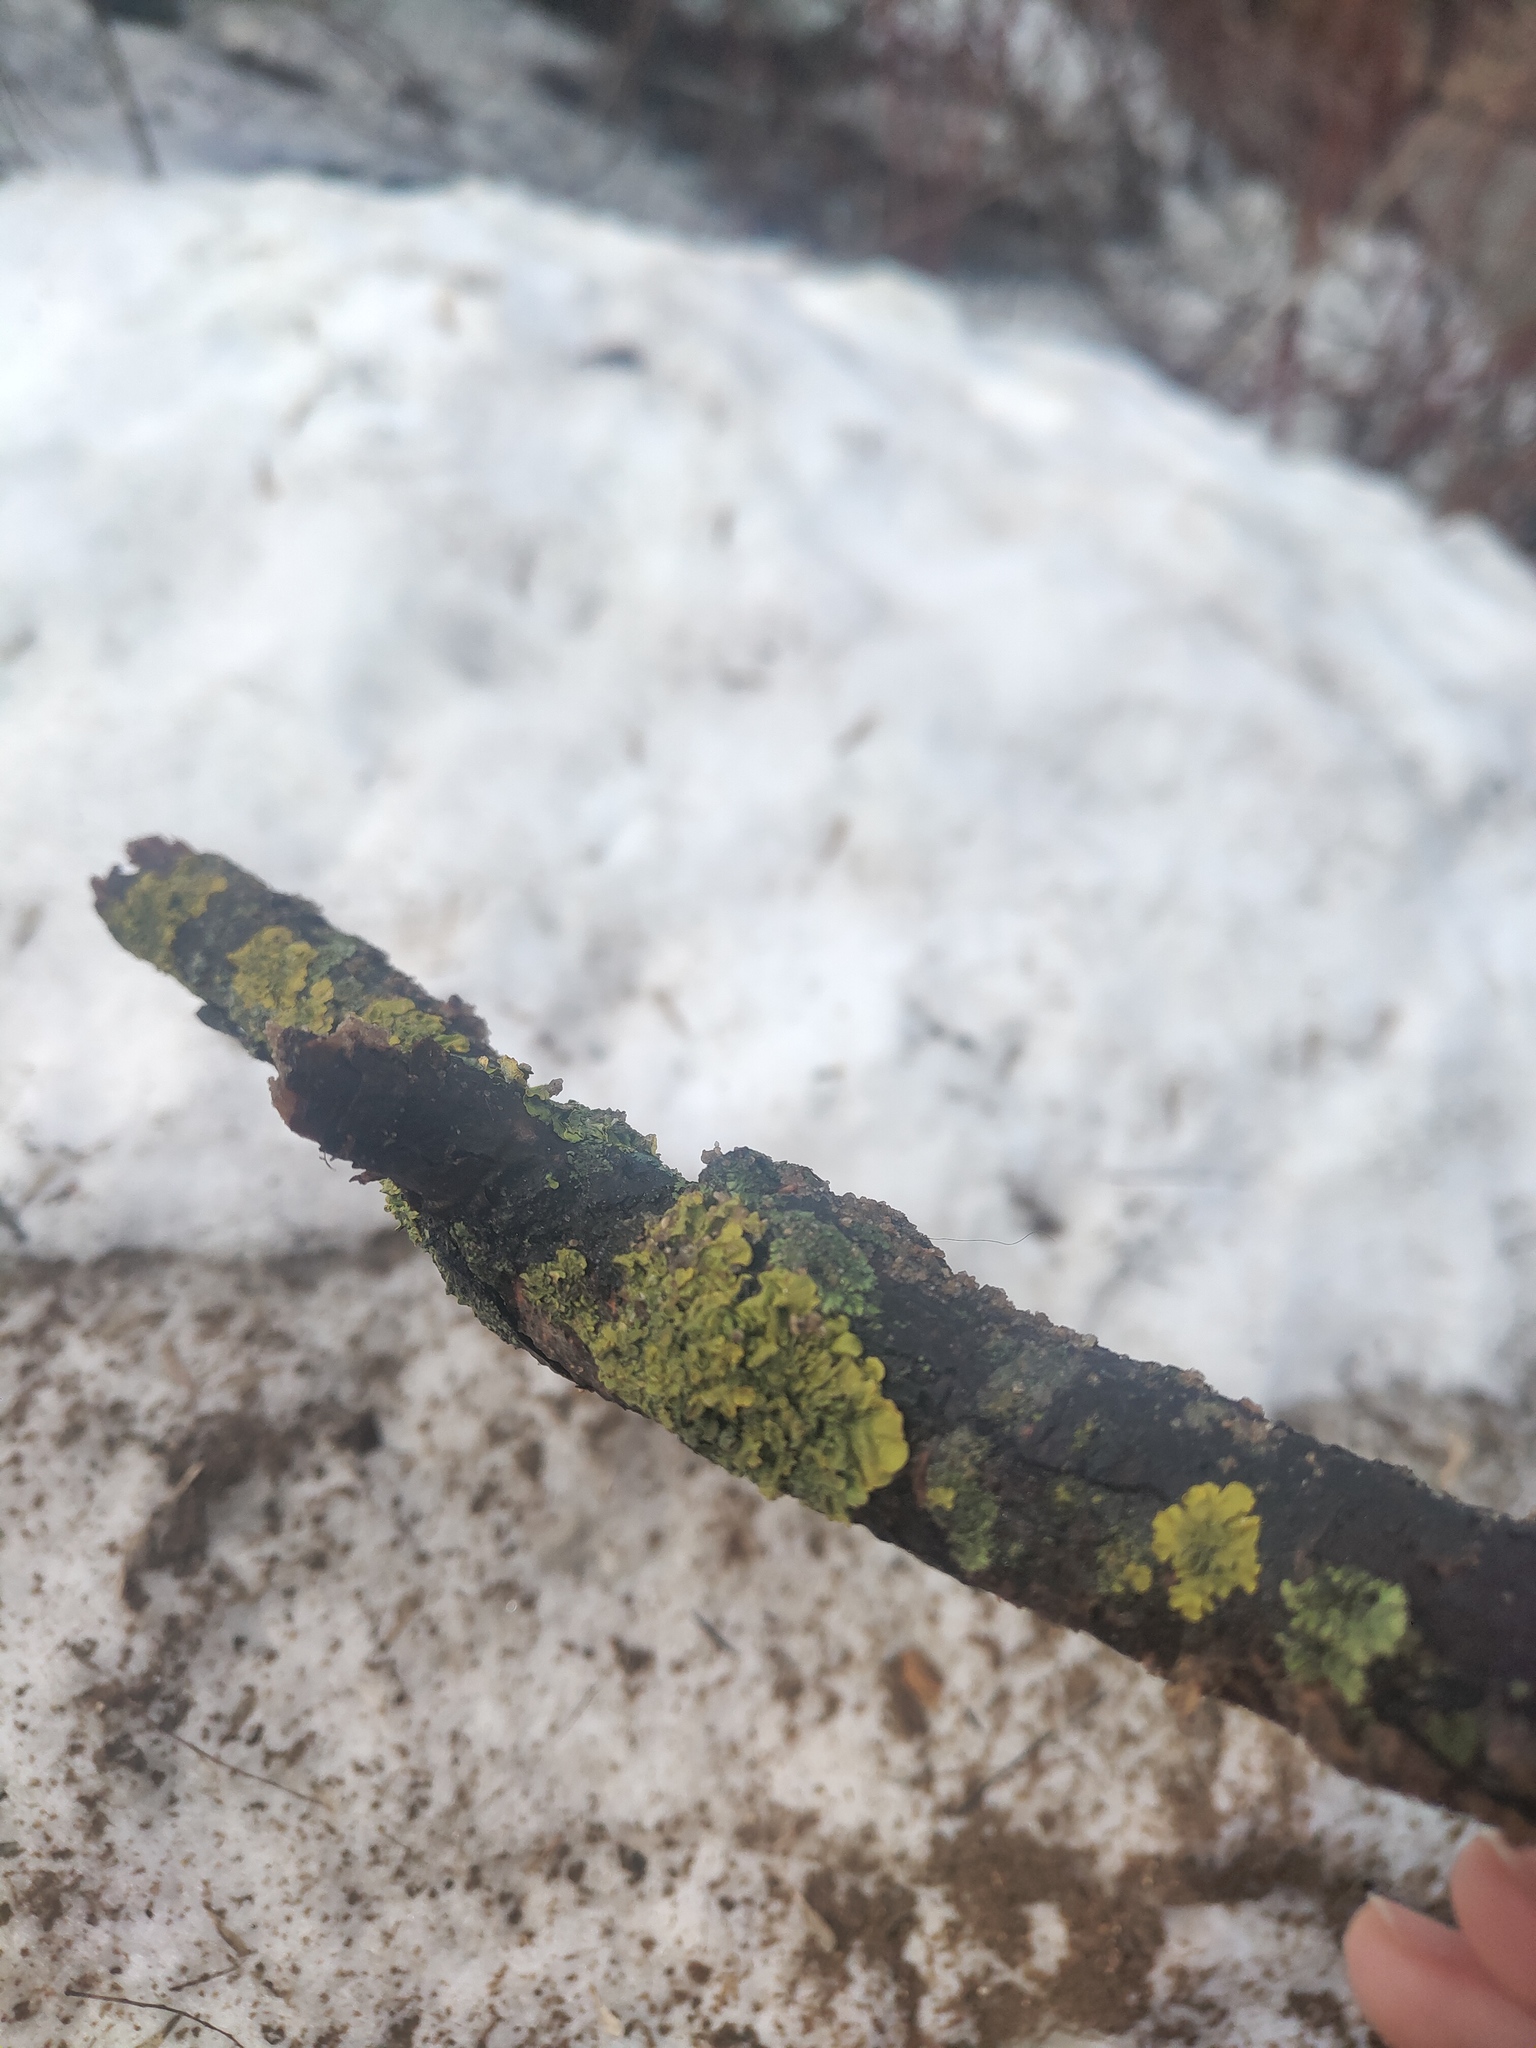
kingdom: Fungi
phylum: Ascomycota
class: Lecanoromycetes
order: Teloschistales
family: Teloschistaceae
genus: Xanthoria
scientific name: Xanthoria parietina
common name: Common orange lichen
